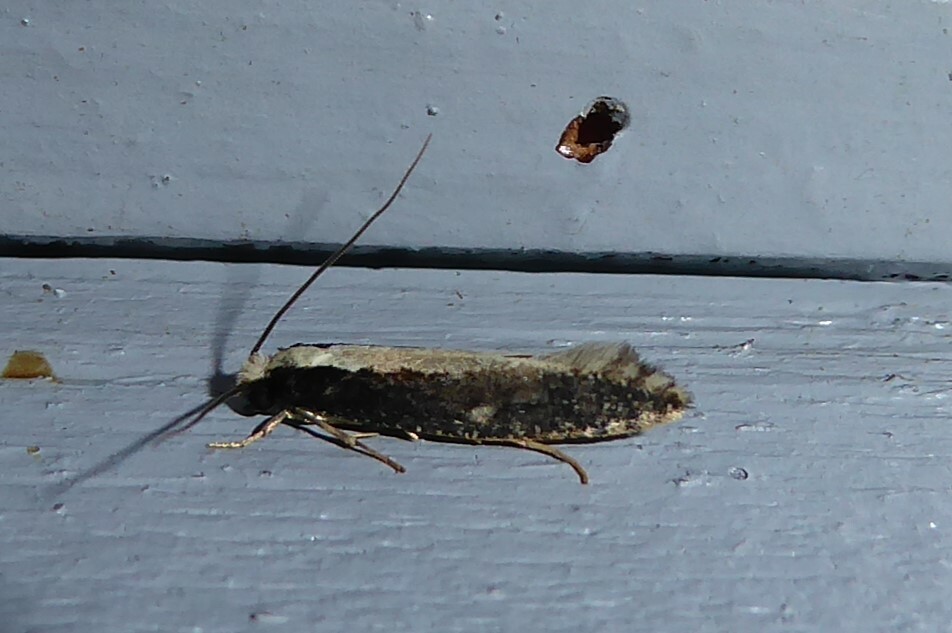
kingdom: Animalia
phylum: Arthropoda
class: Insecta
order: Lepidoptera
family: Tineidae
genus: Monopis
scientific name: Monopis ethelella
